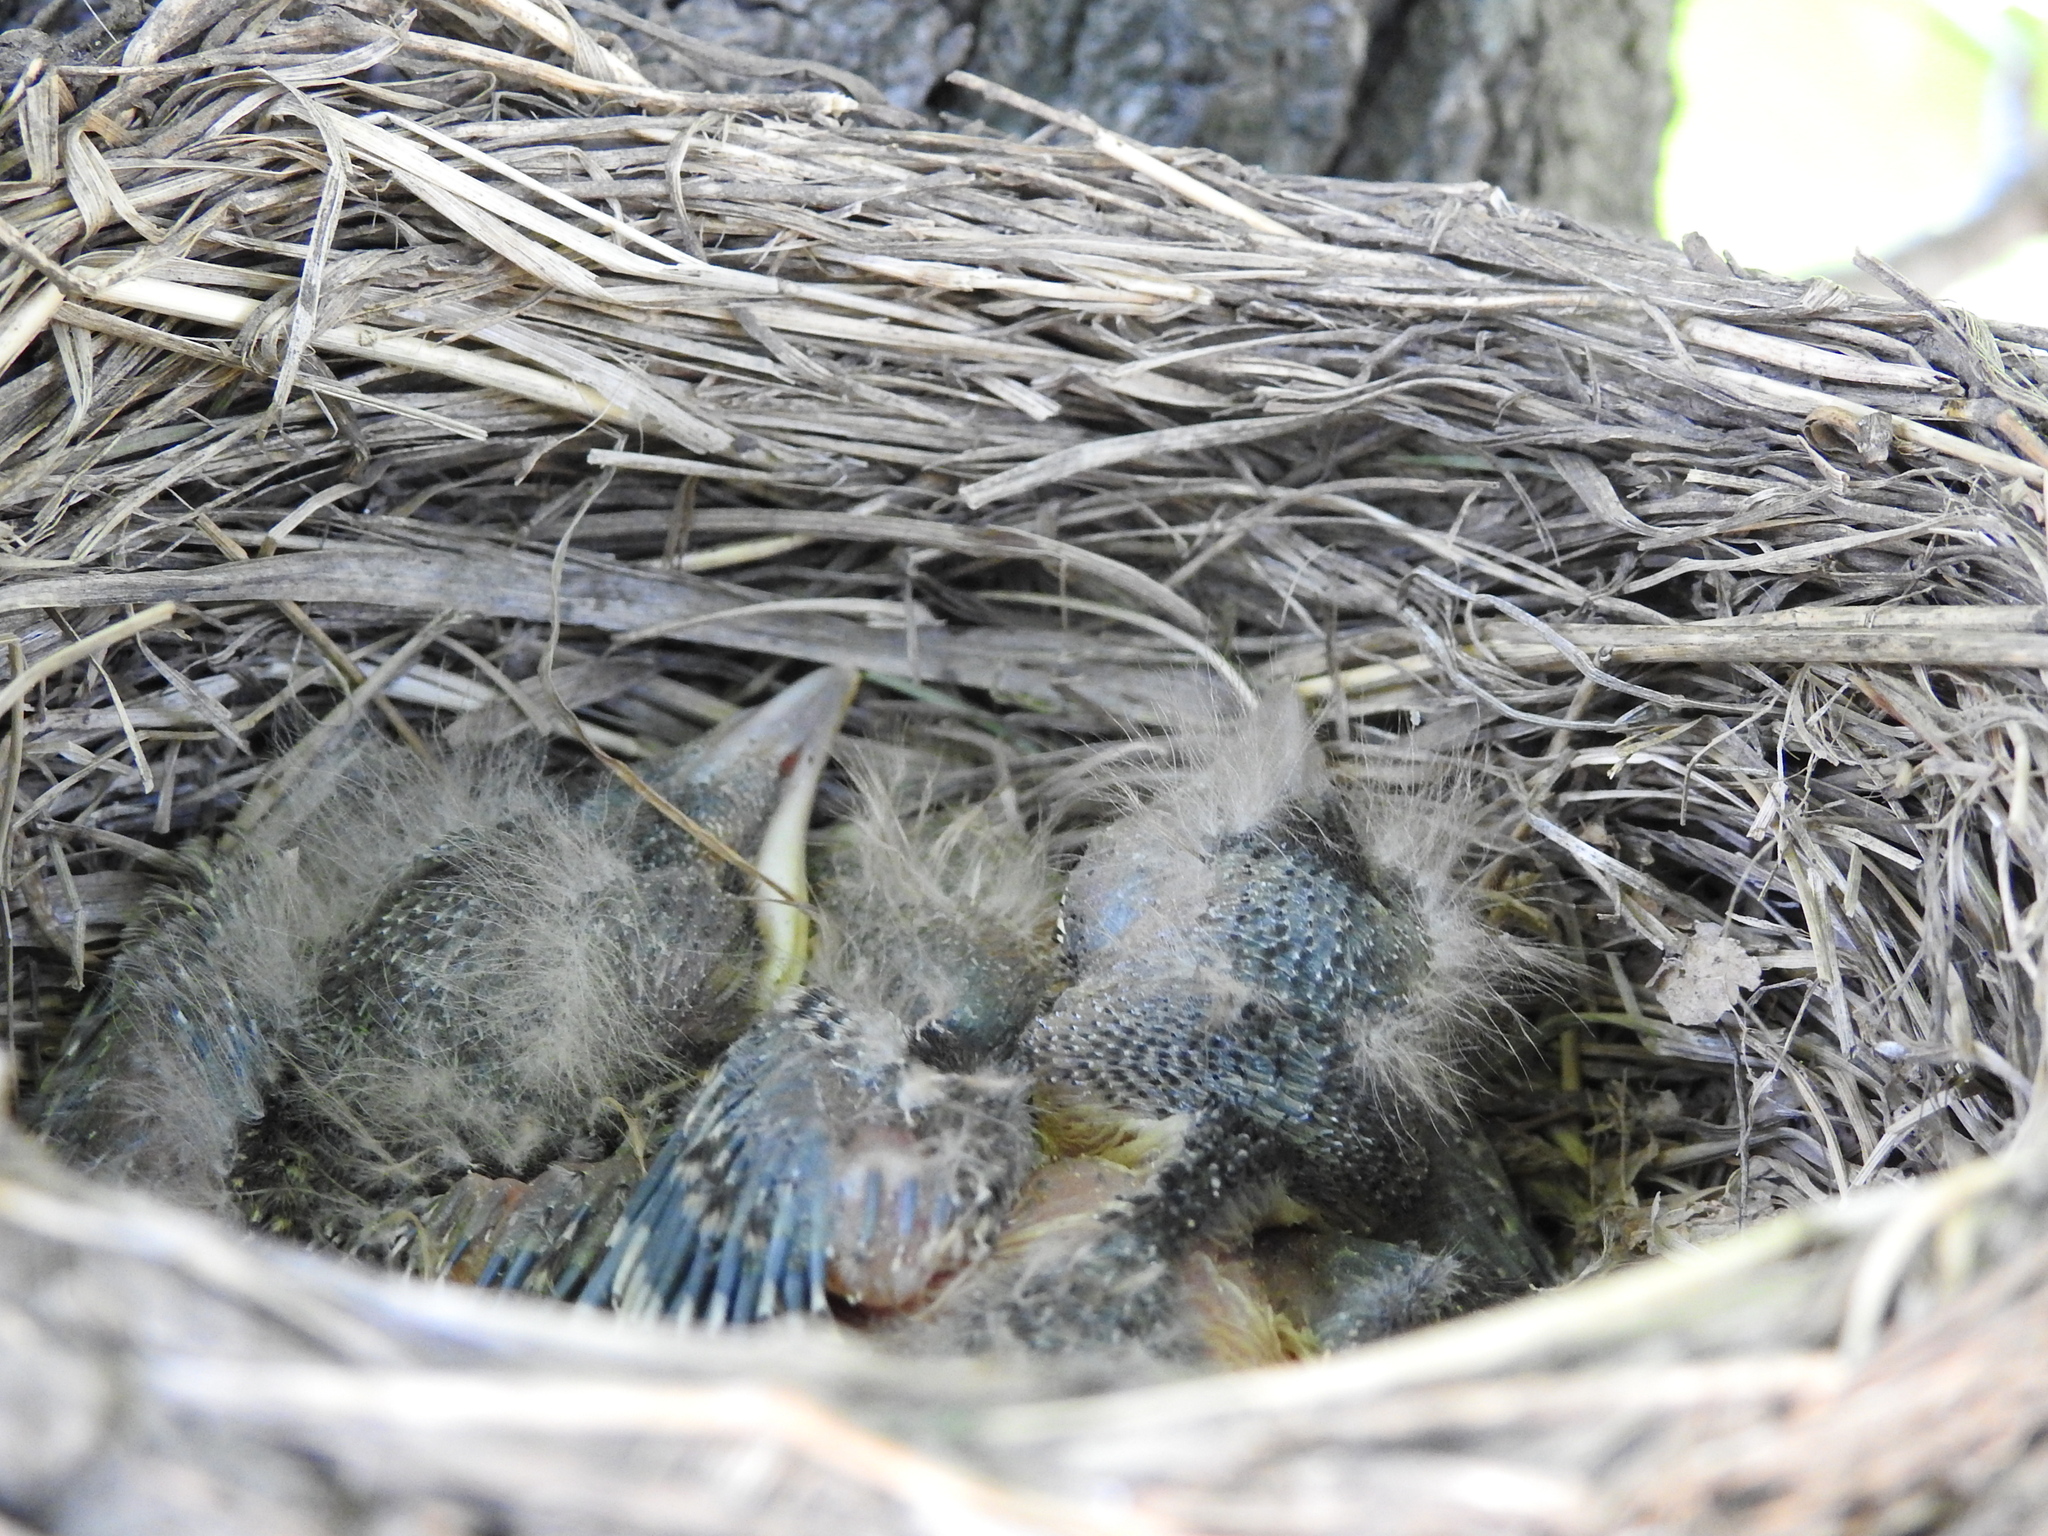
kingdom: Animalia
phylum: Chordata
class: Aves
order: Passeriformes
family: Turdidae
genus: Turdus
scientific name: Turdus pilaris
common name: Fieldfare
